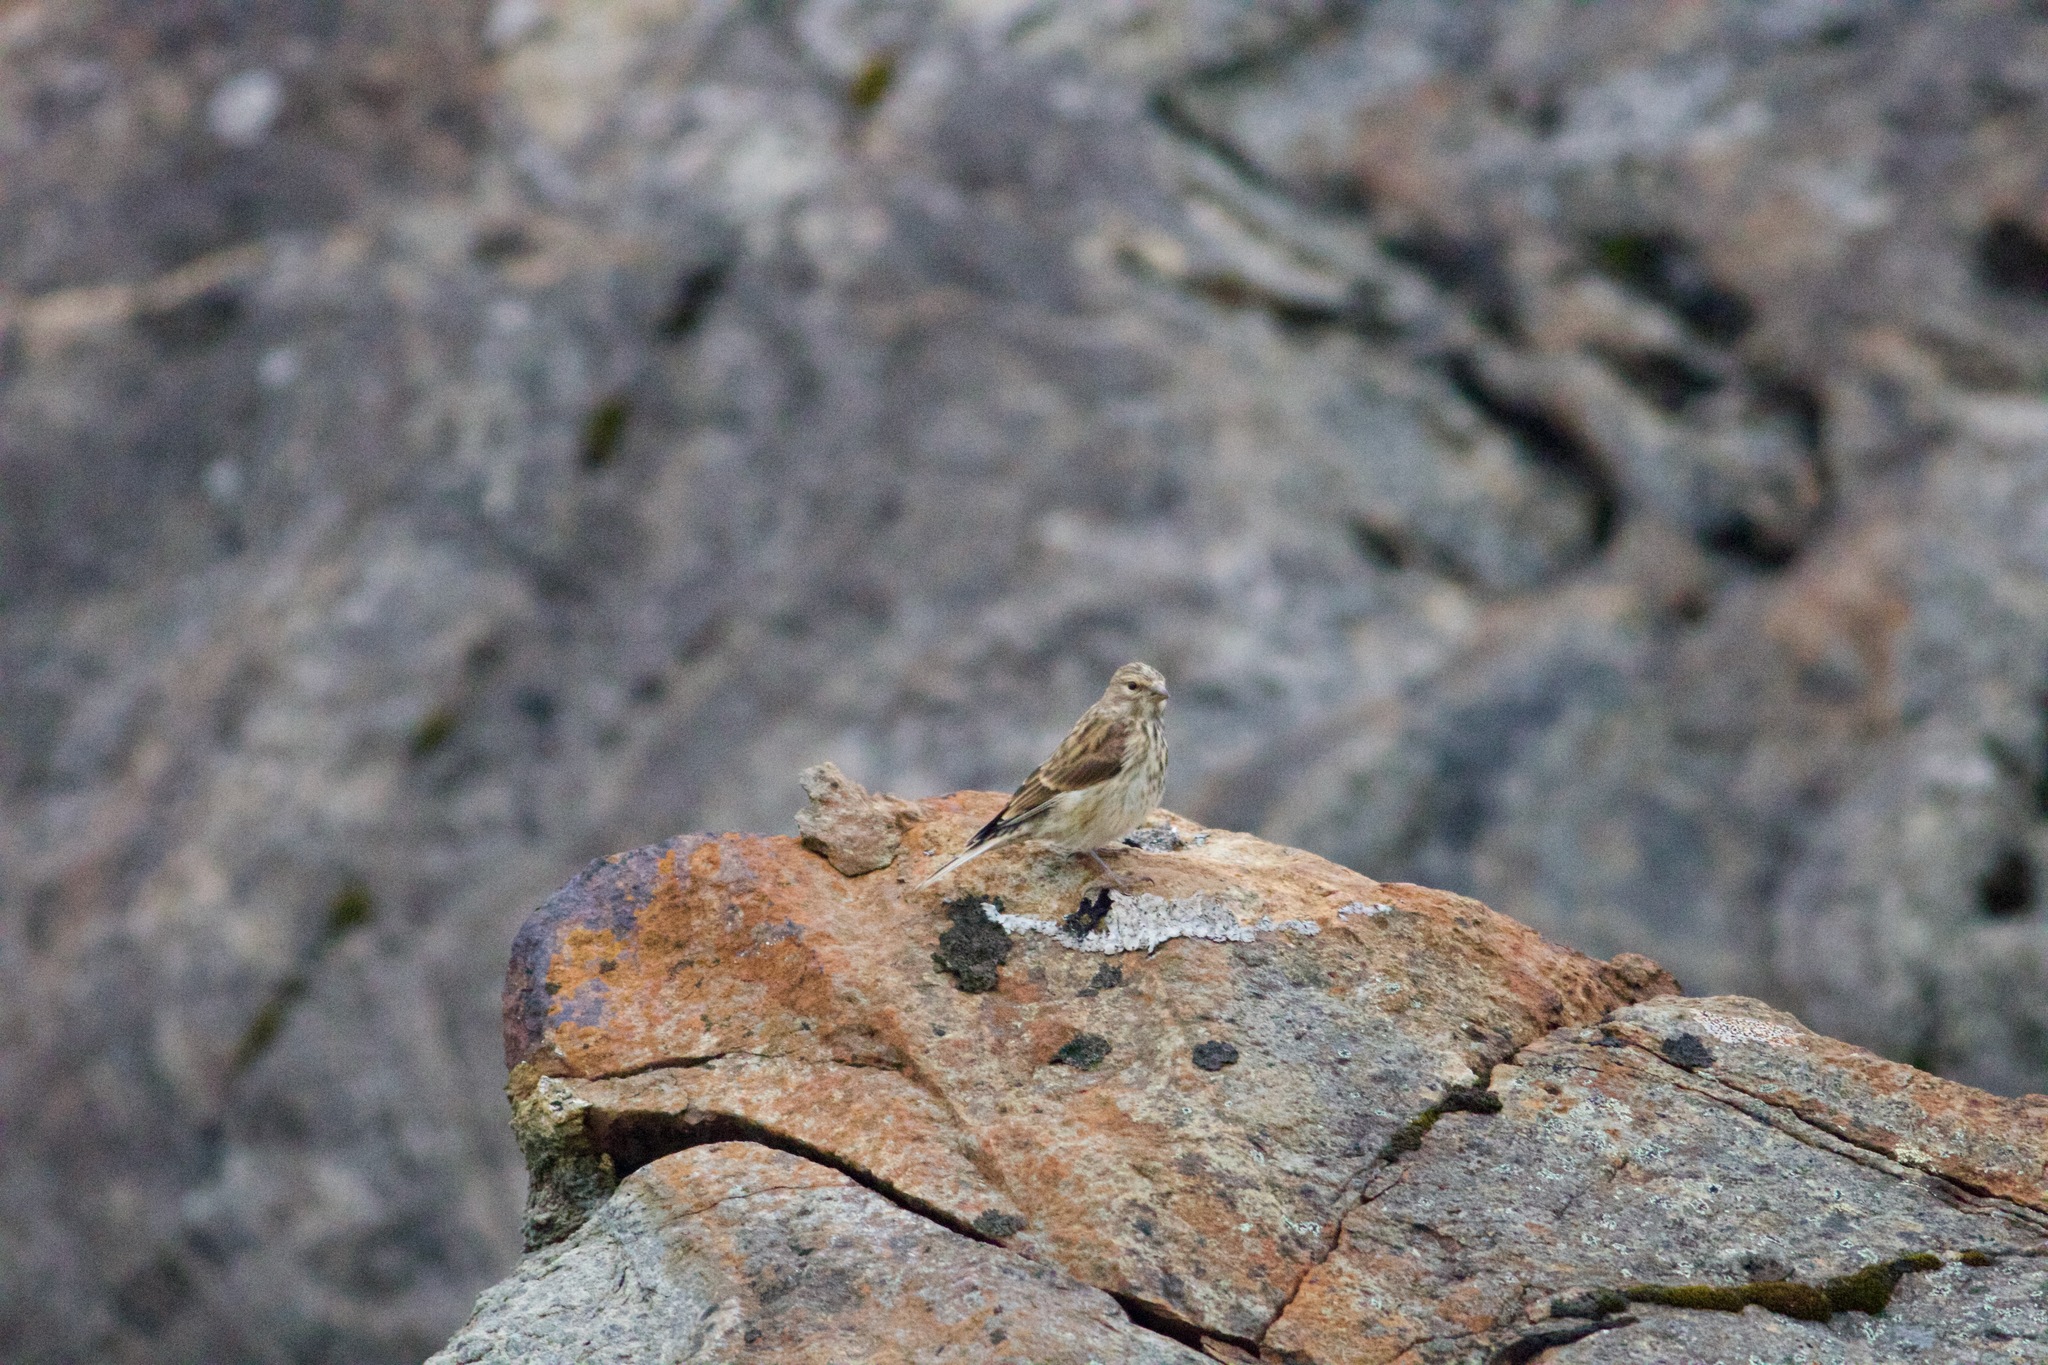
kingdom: Animalia
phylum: Chordata
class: Aves
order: Passeriformes
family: Fringillidae
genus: Linaria
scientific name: Linaria cannabina
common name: Common linnet
